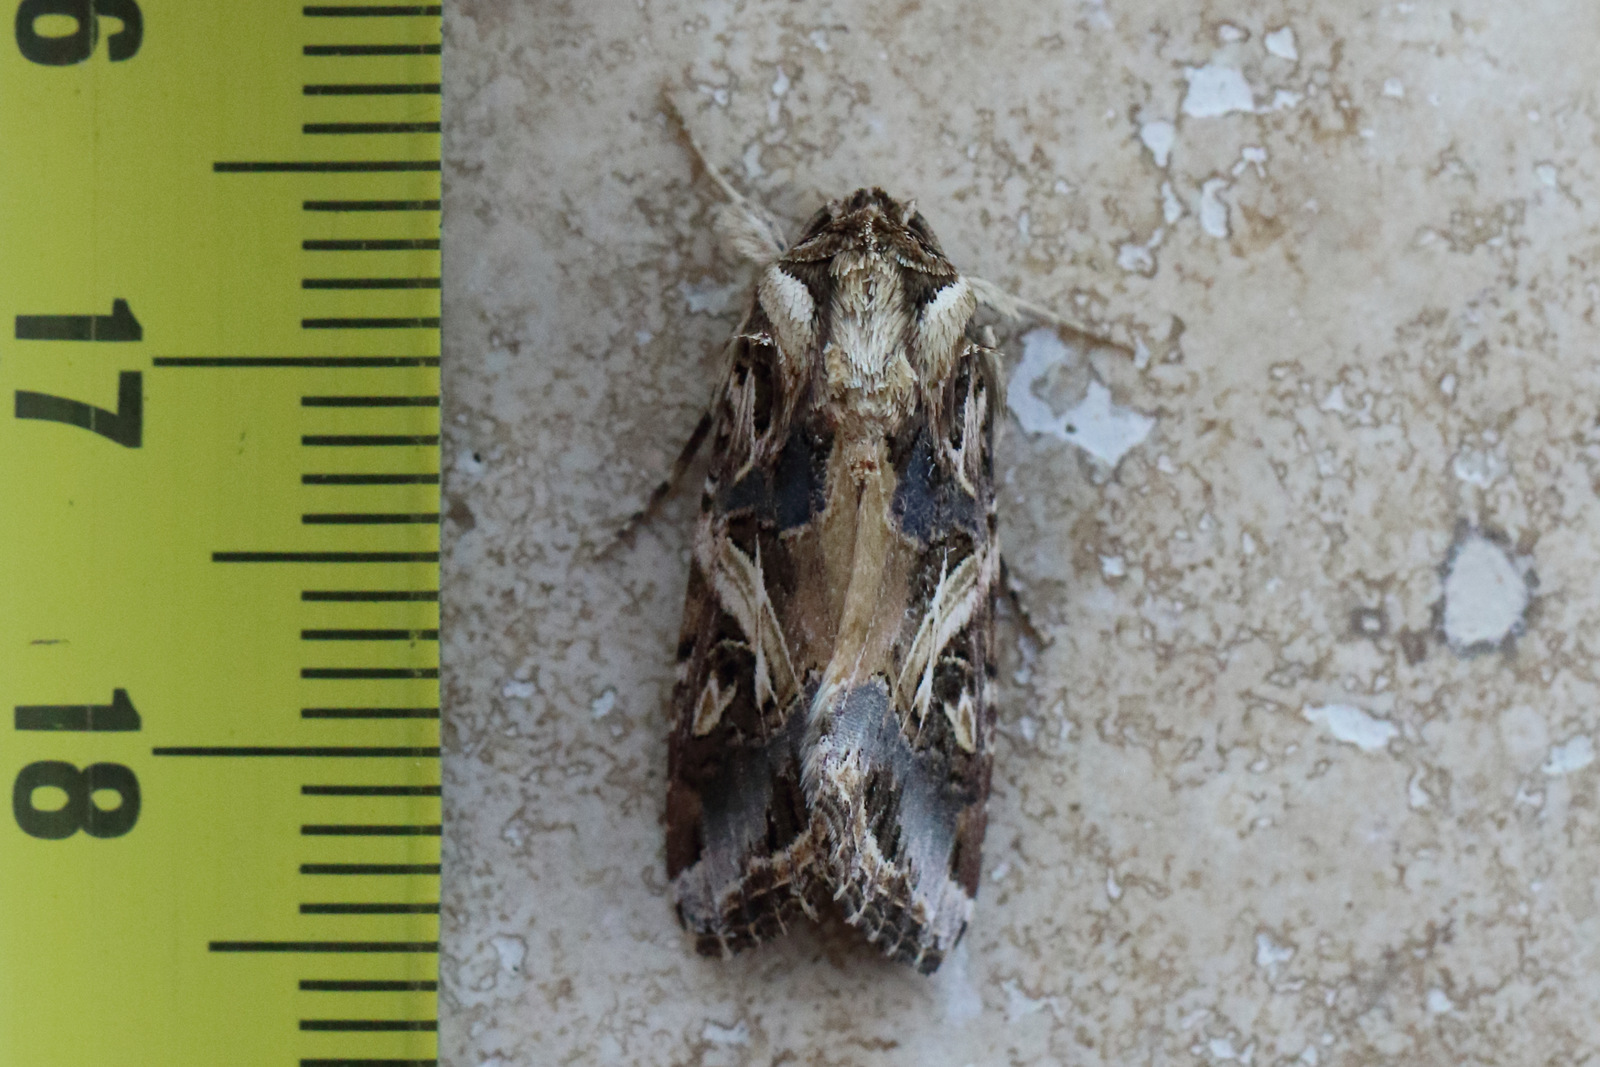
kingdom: Animalia
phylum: Arthropoda
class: Insecta
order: Lepidoptera
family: Noctuidae
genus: Spodoptera
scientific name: Spodoptera litura
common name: Asian cotton leafworm
